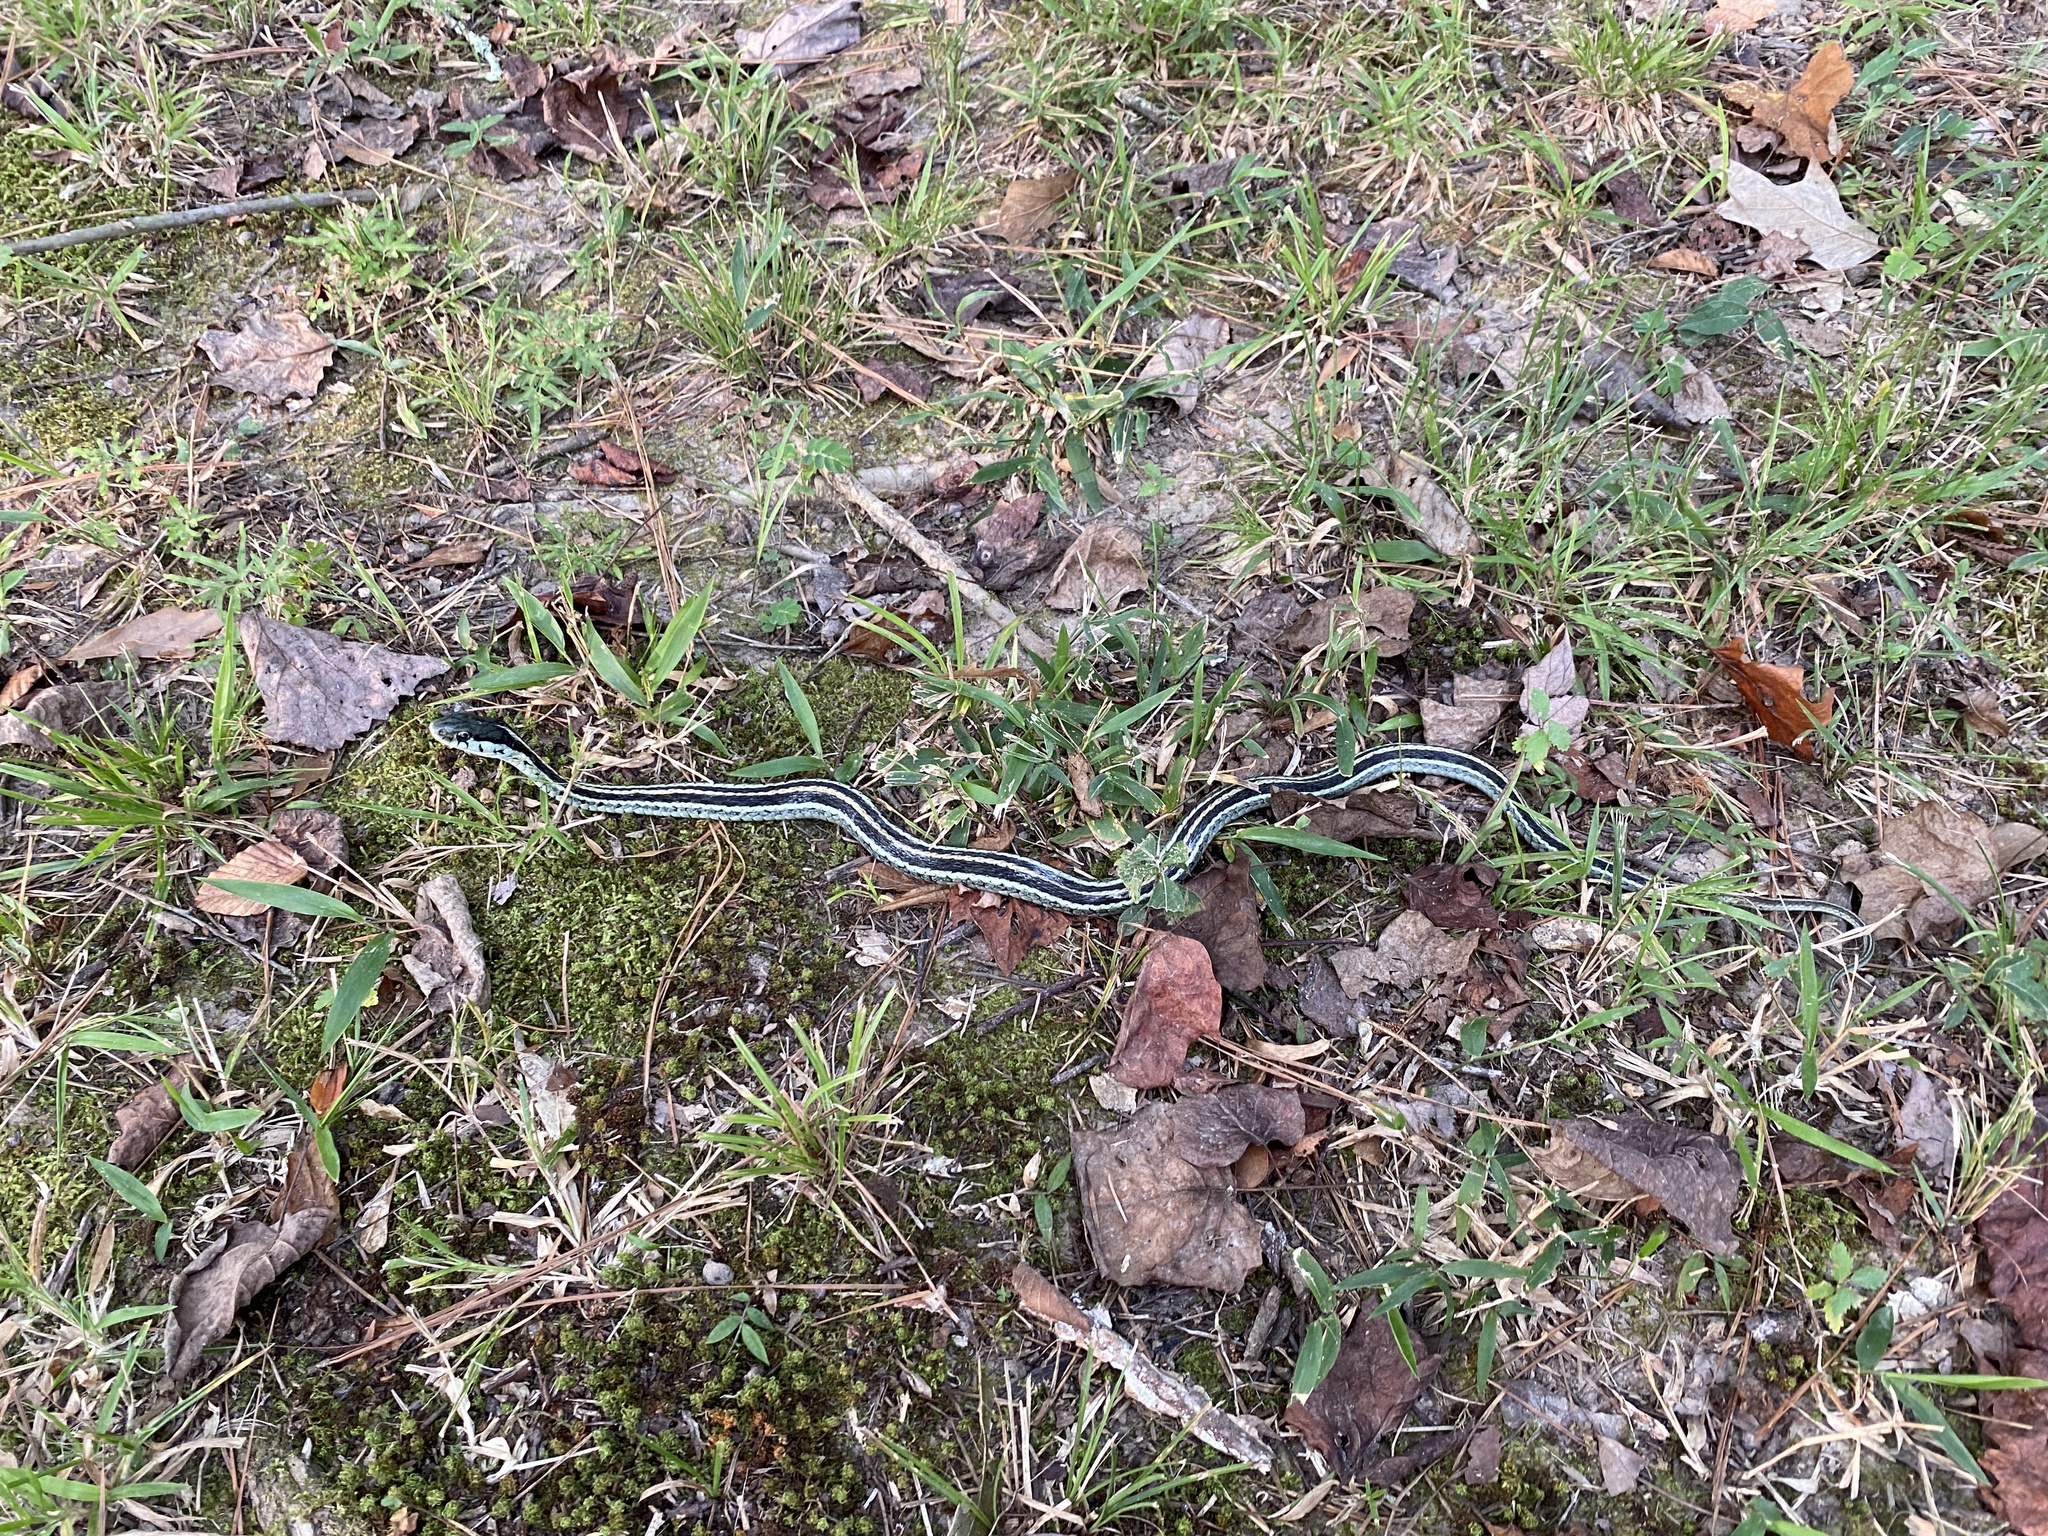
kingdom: Animalia
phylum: Chordata
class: Squamata
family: Colubridae
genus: Thamnophis
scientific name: Thamnophis sirtalis
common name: Common garter snake
